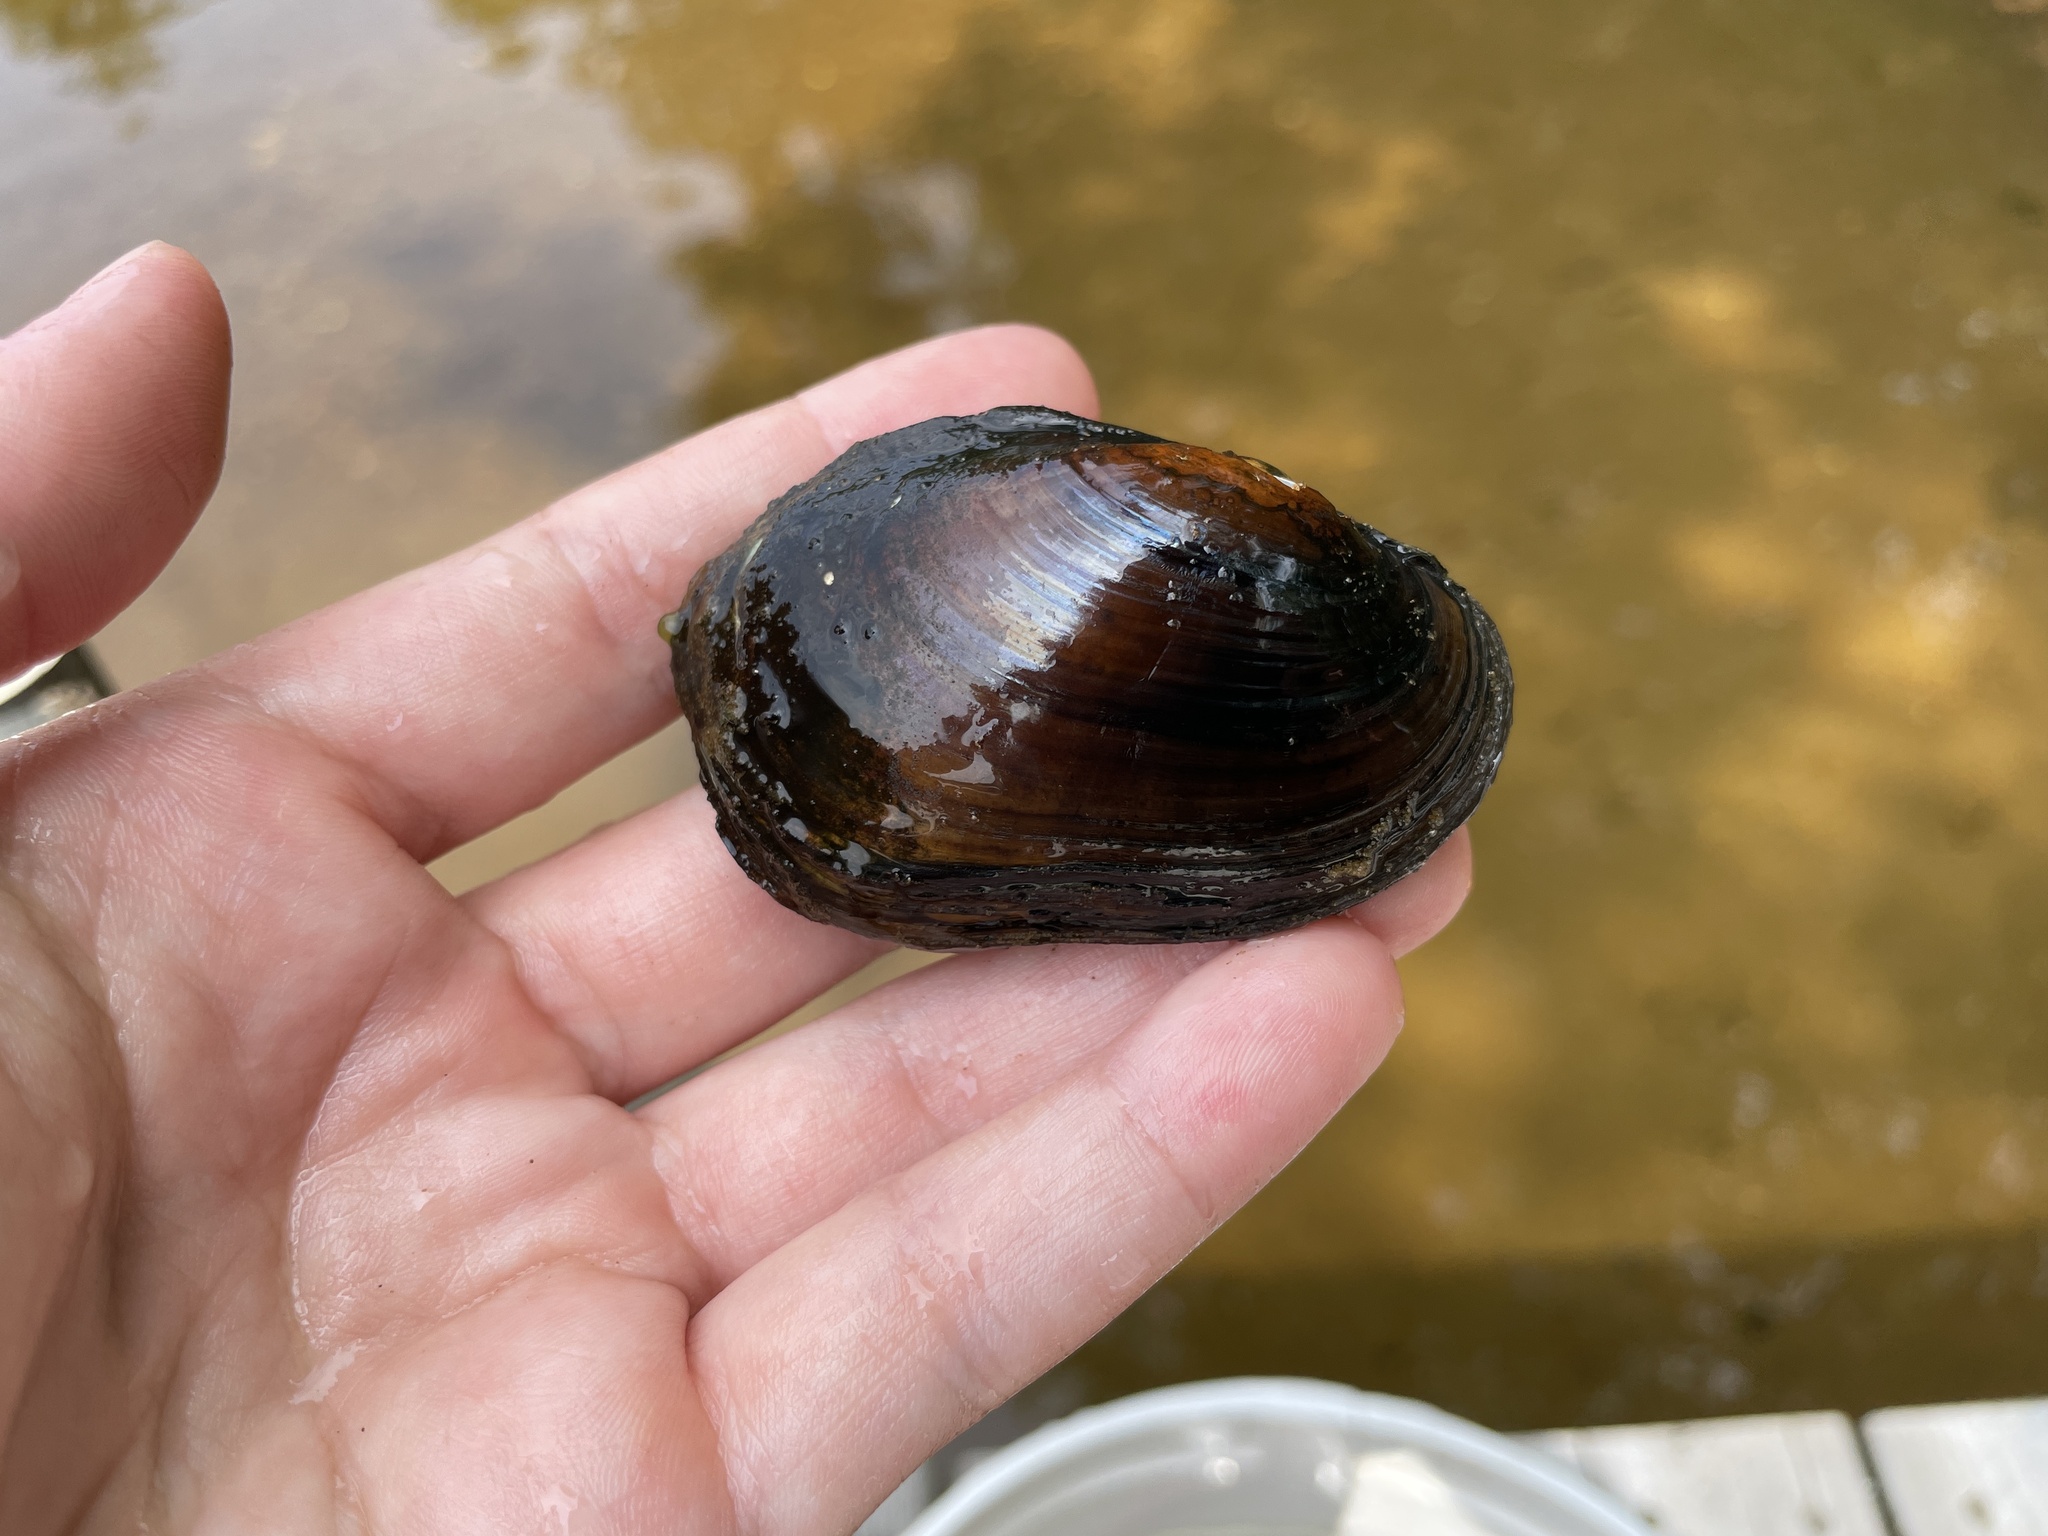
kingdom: Animalia
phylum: Mollusca
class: Bivalvia
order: Unionida
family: Unionidae
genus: Lampsilis
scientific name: Lampsilis siliquoidea
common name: Fatmucket
